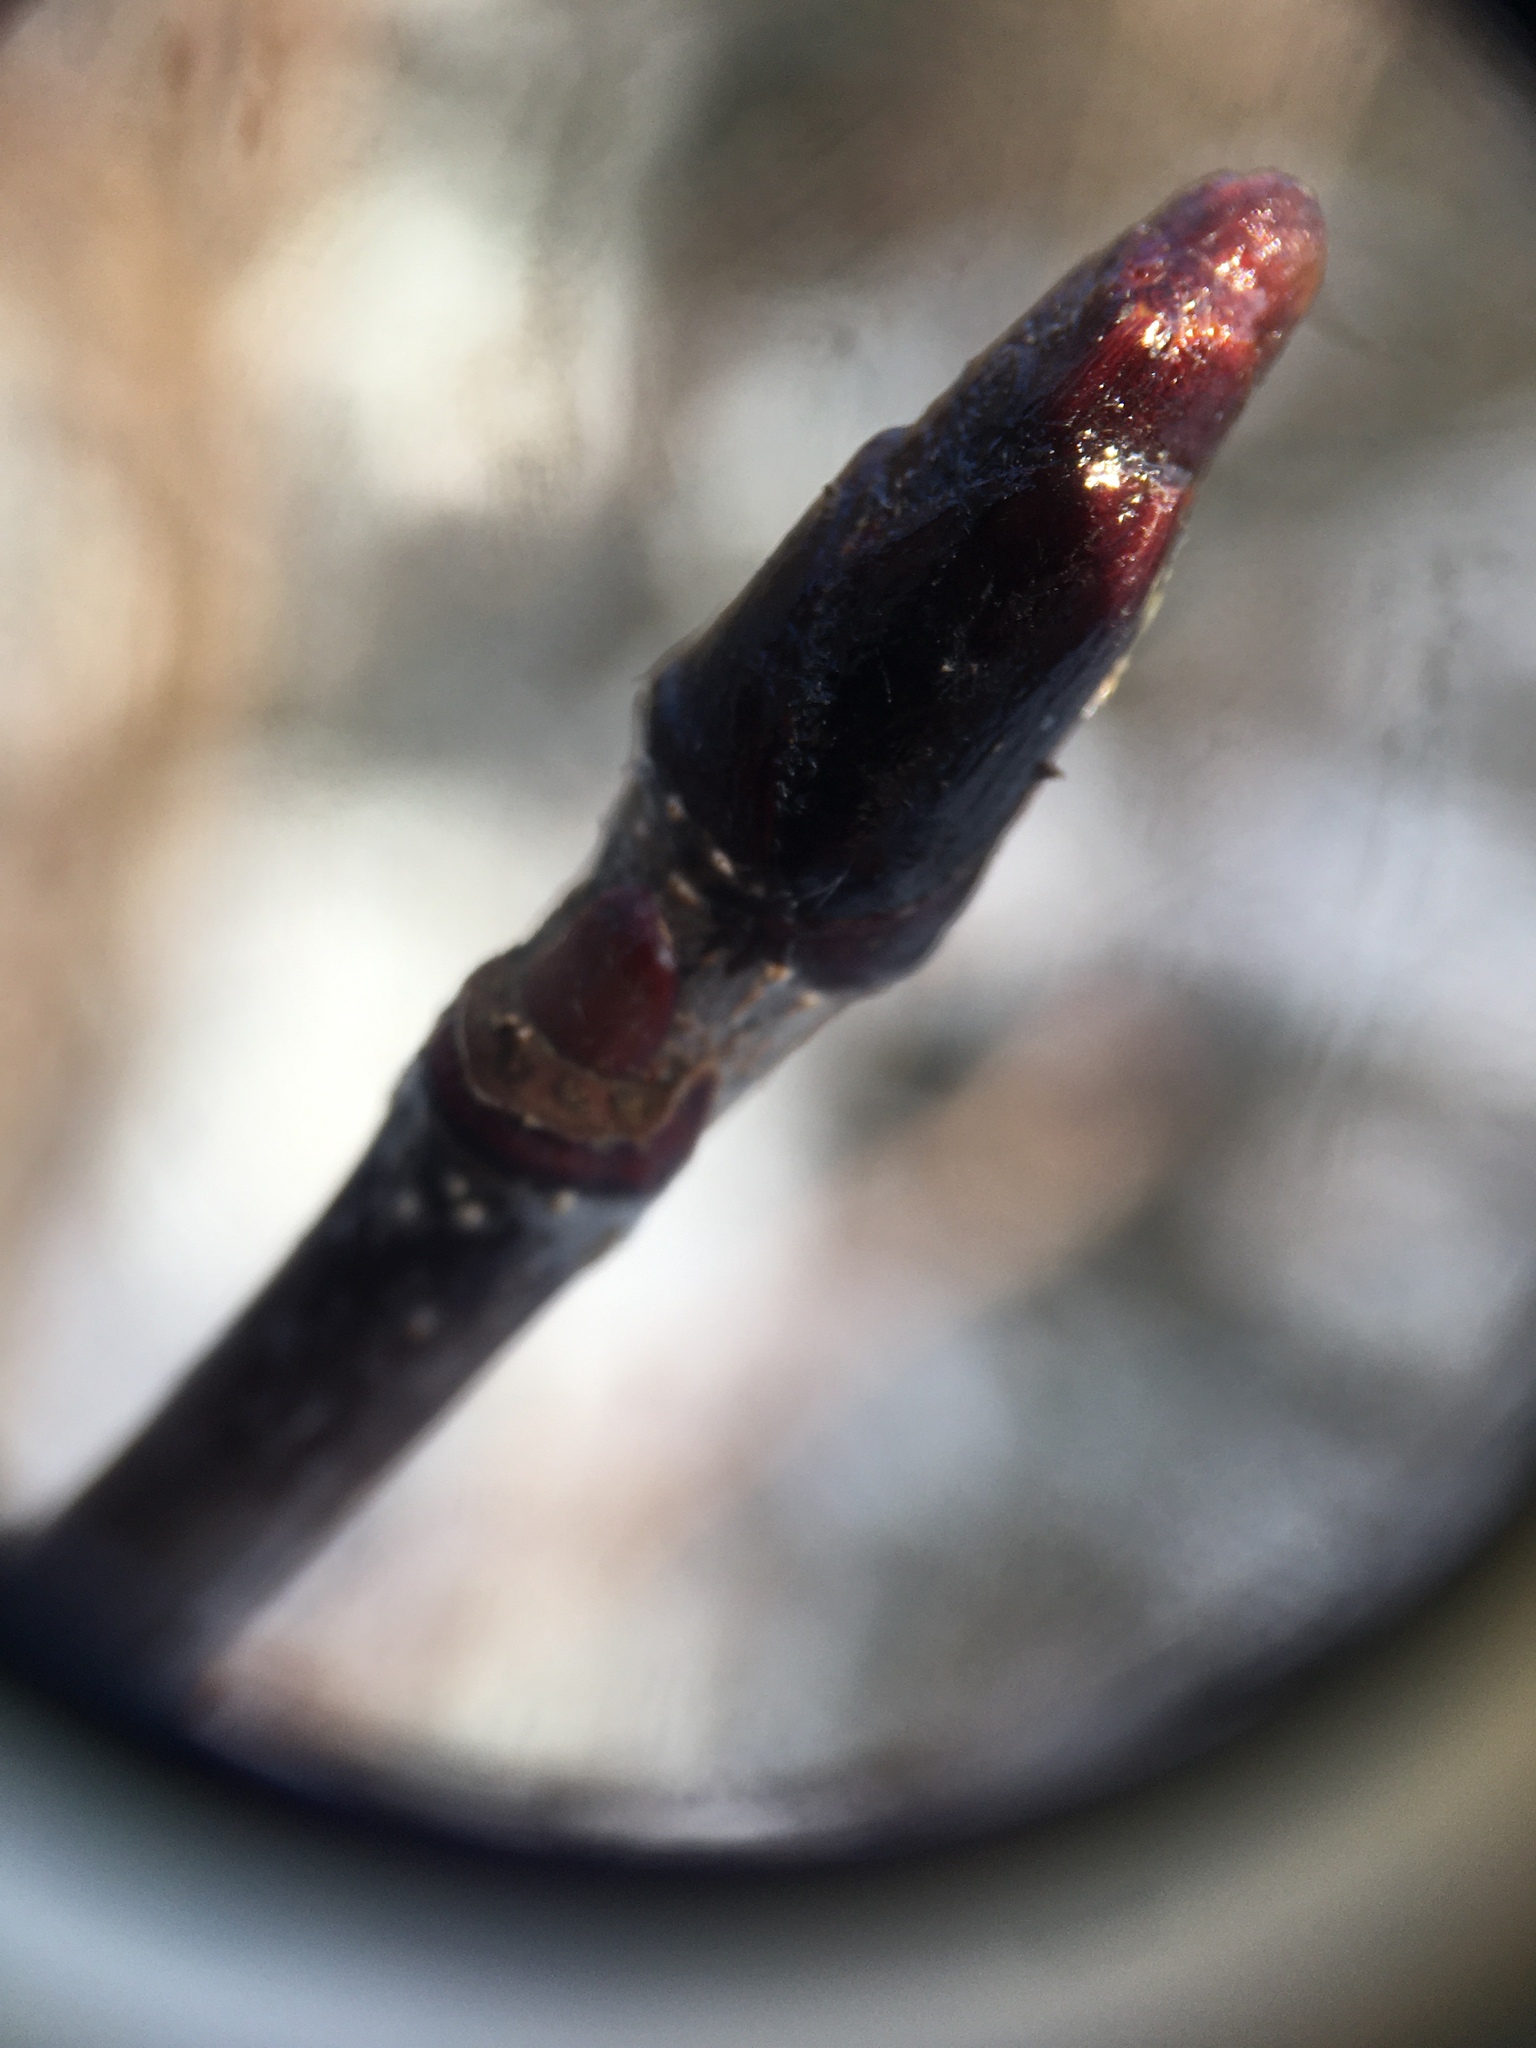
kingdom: Plantae
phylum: Tracheophyta
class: Magnoliopsida
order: Rosales
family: Rosaceae
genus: Sorbus
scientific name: Sorbus americana
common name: American mountain-ash
